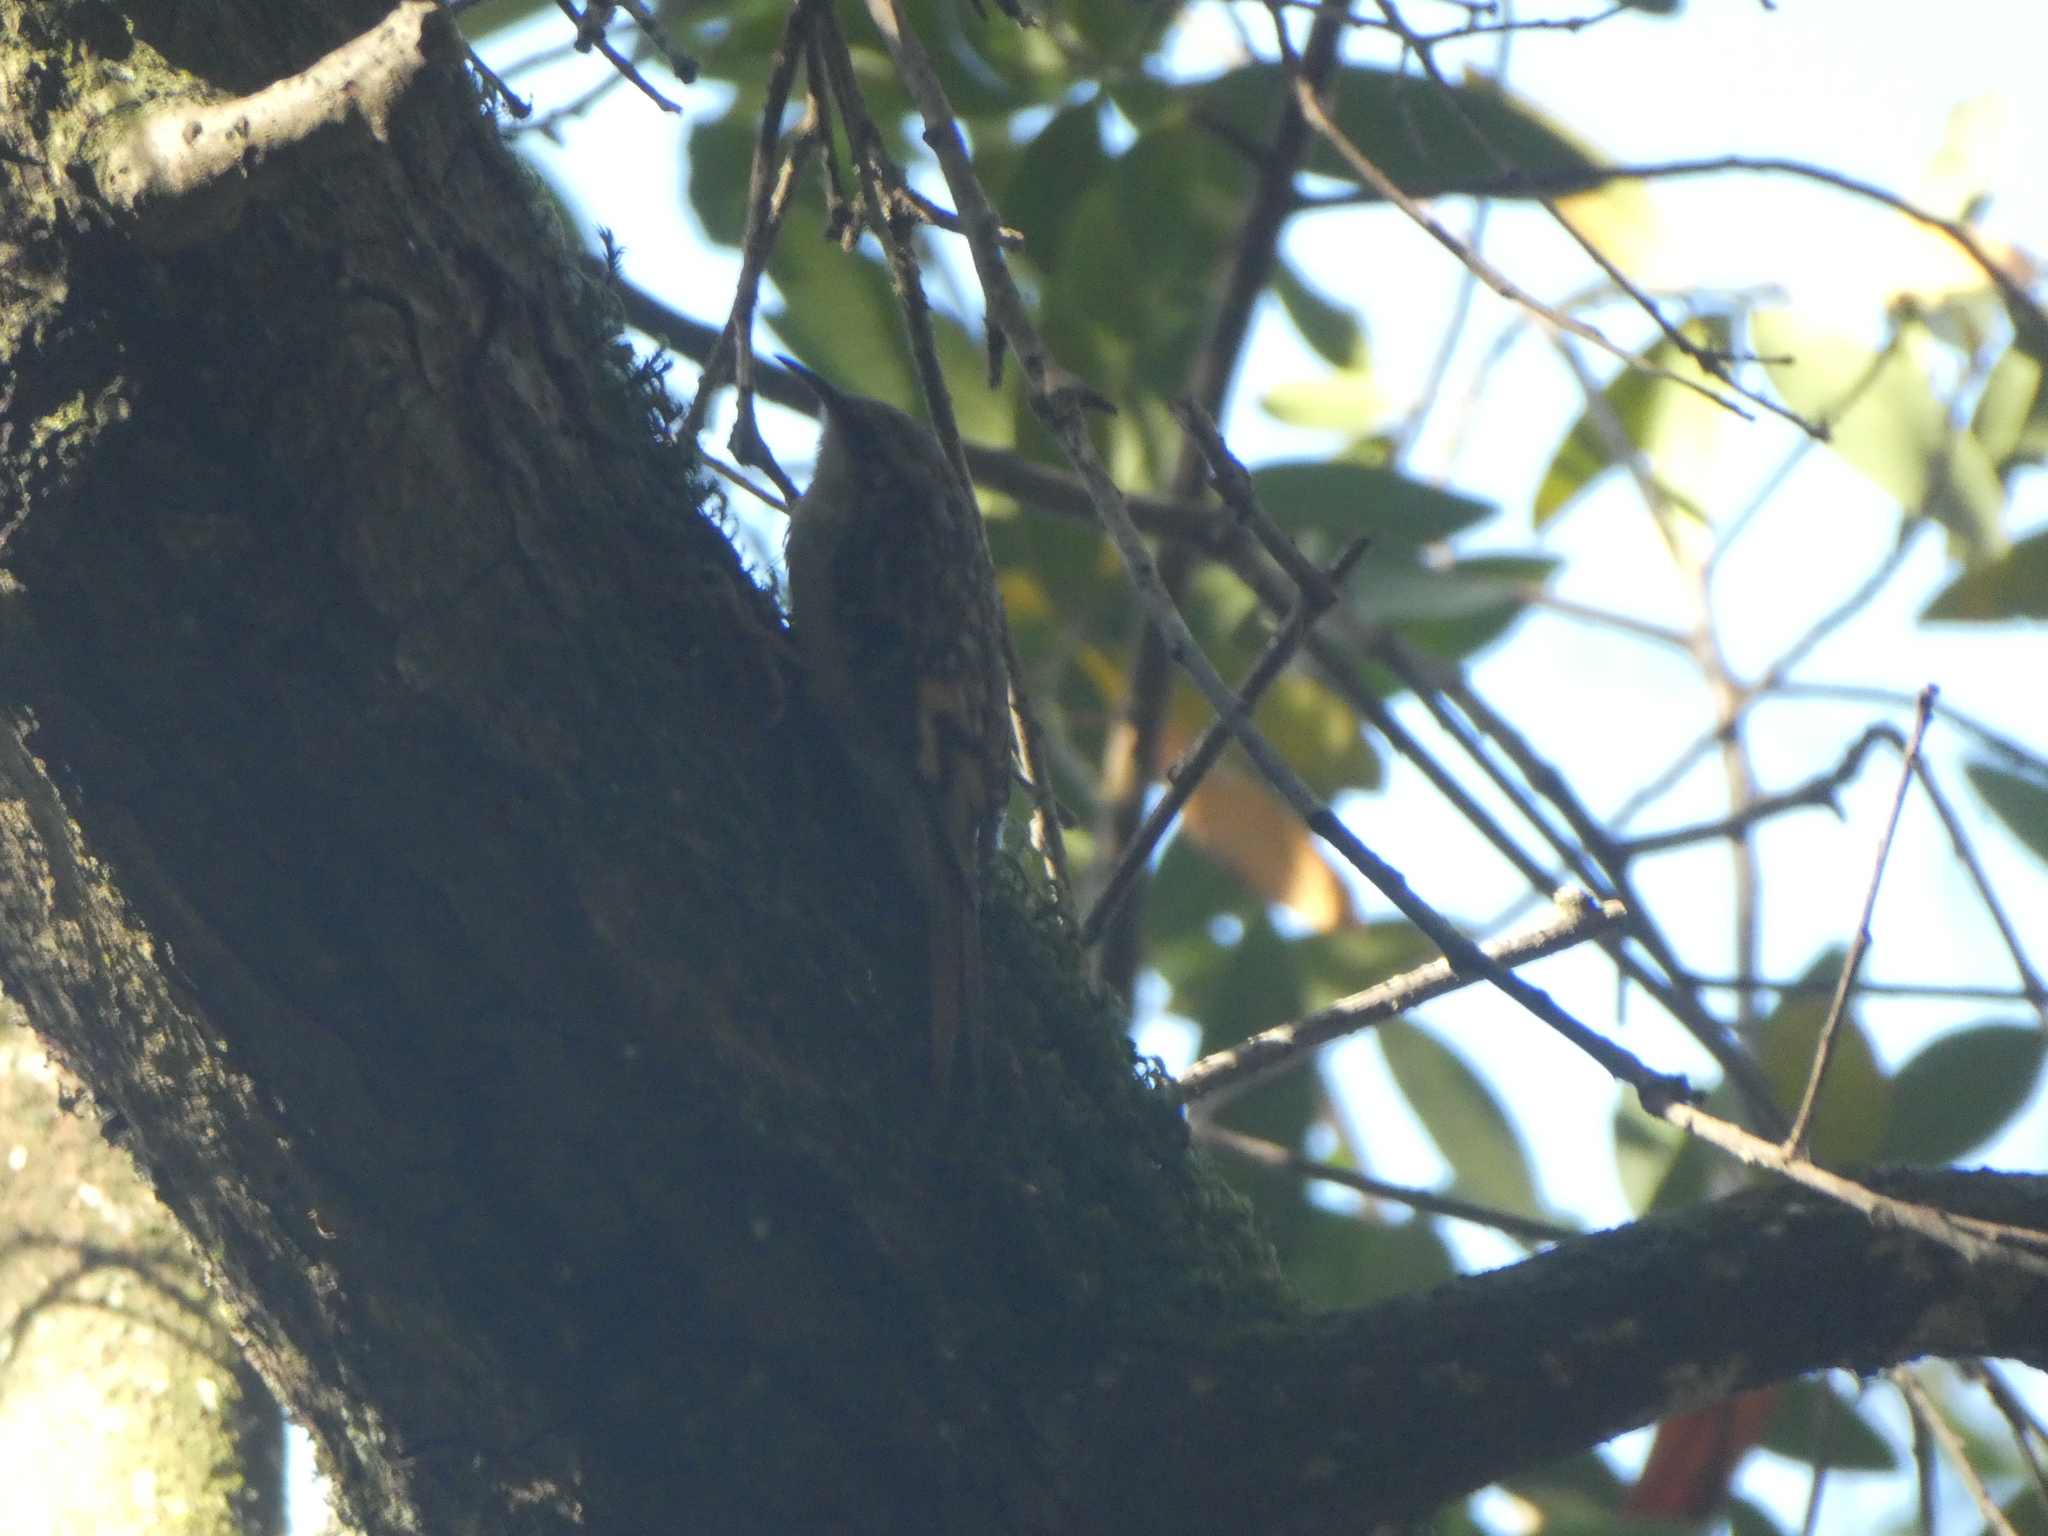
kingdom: Animalia
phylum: Chordata
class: Aves
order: Passeriformes
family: Certhiidae
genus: Certhia
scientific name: Certhia americana
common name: Brown creeper
